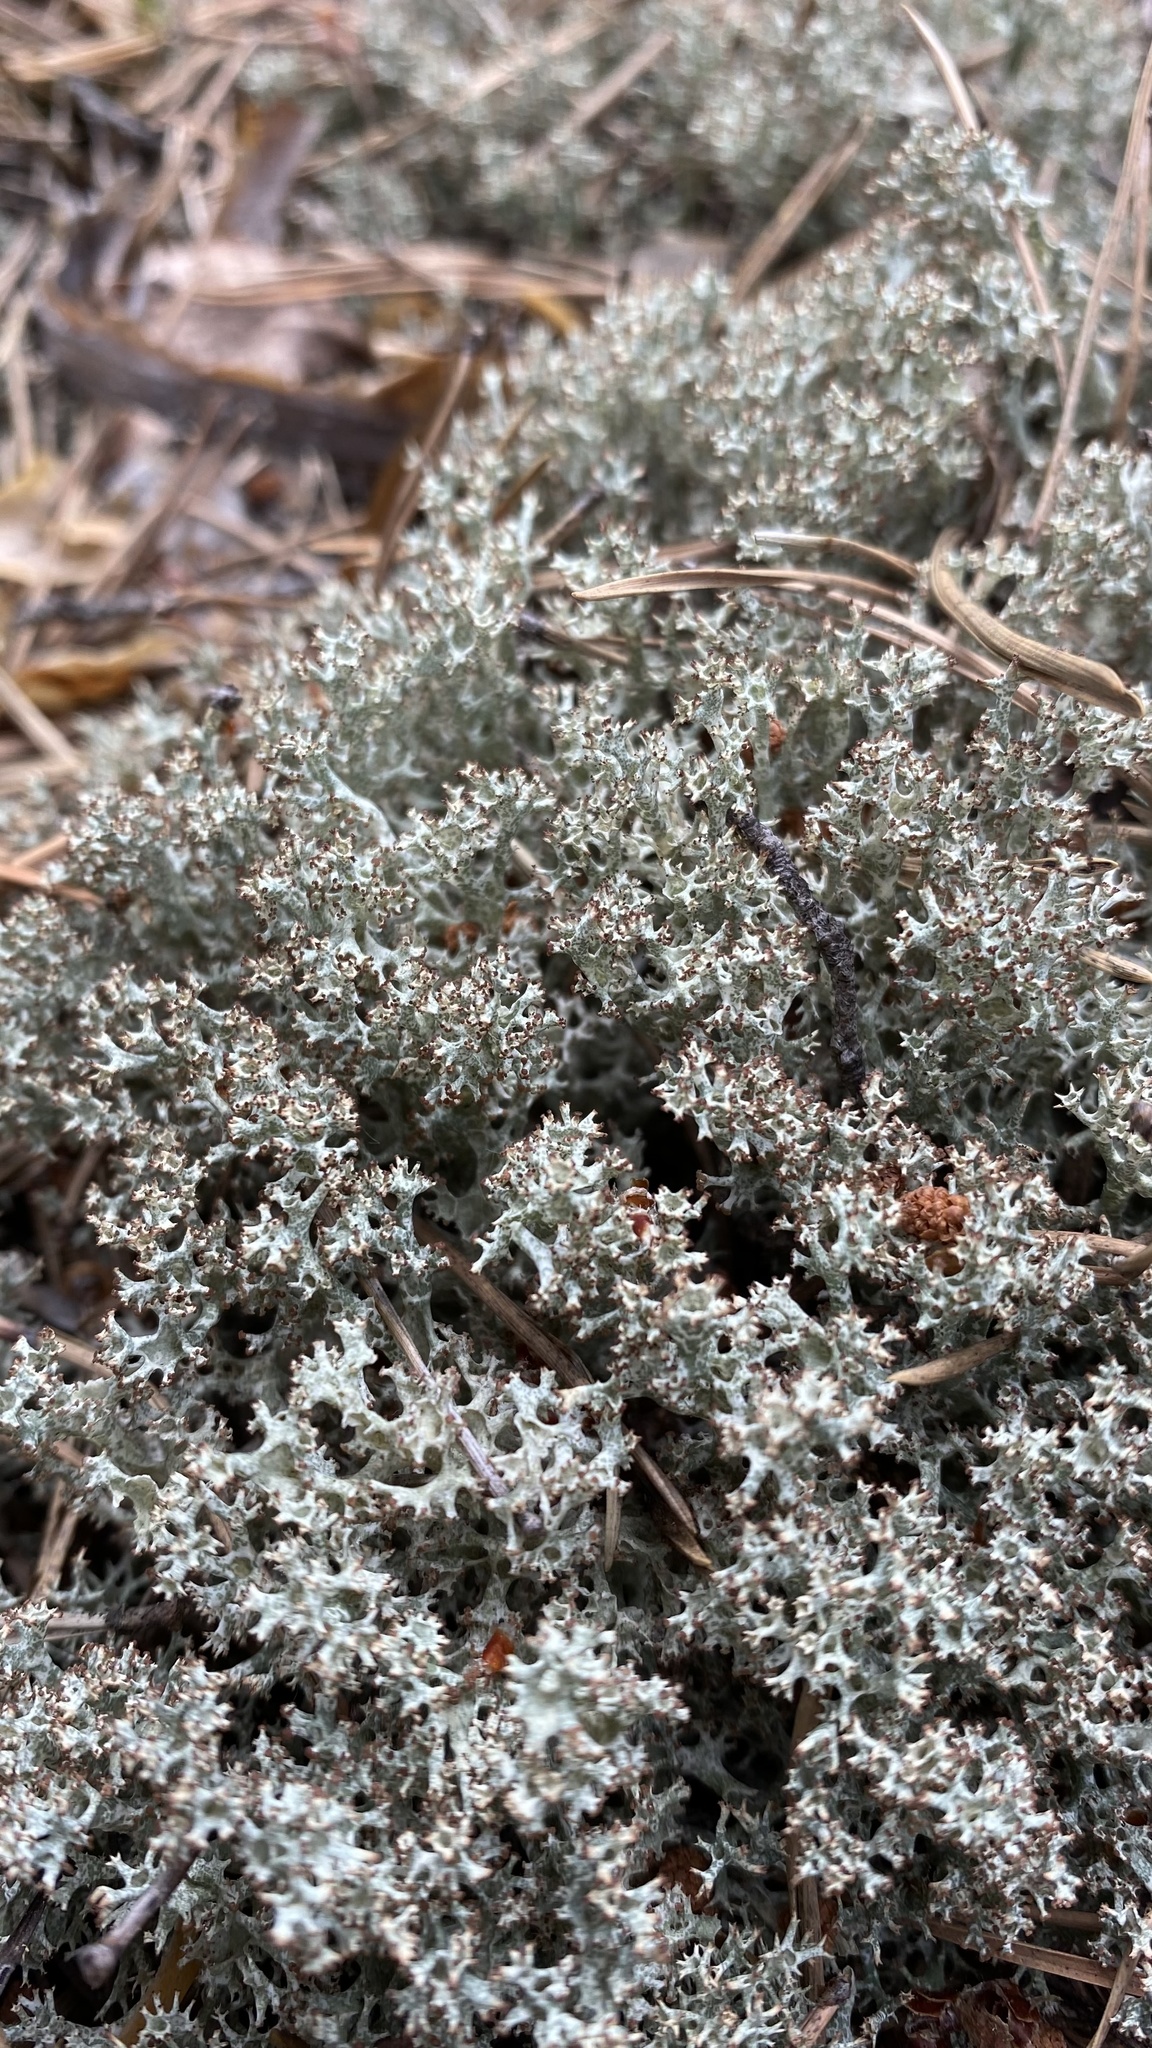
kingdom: Fungi
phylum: Ascomycota
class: Lecanoromycetes
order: Lecanorales
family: Cladoniaceae
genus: Cladonia
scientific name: Cladonia uncialis
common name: Thorn lichen
